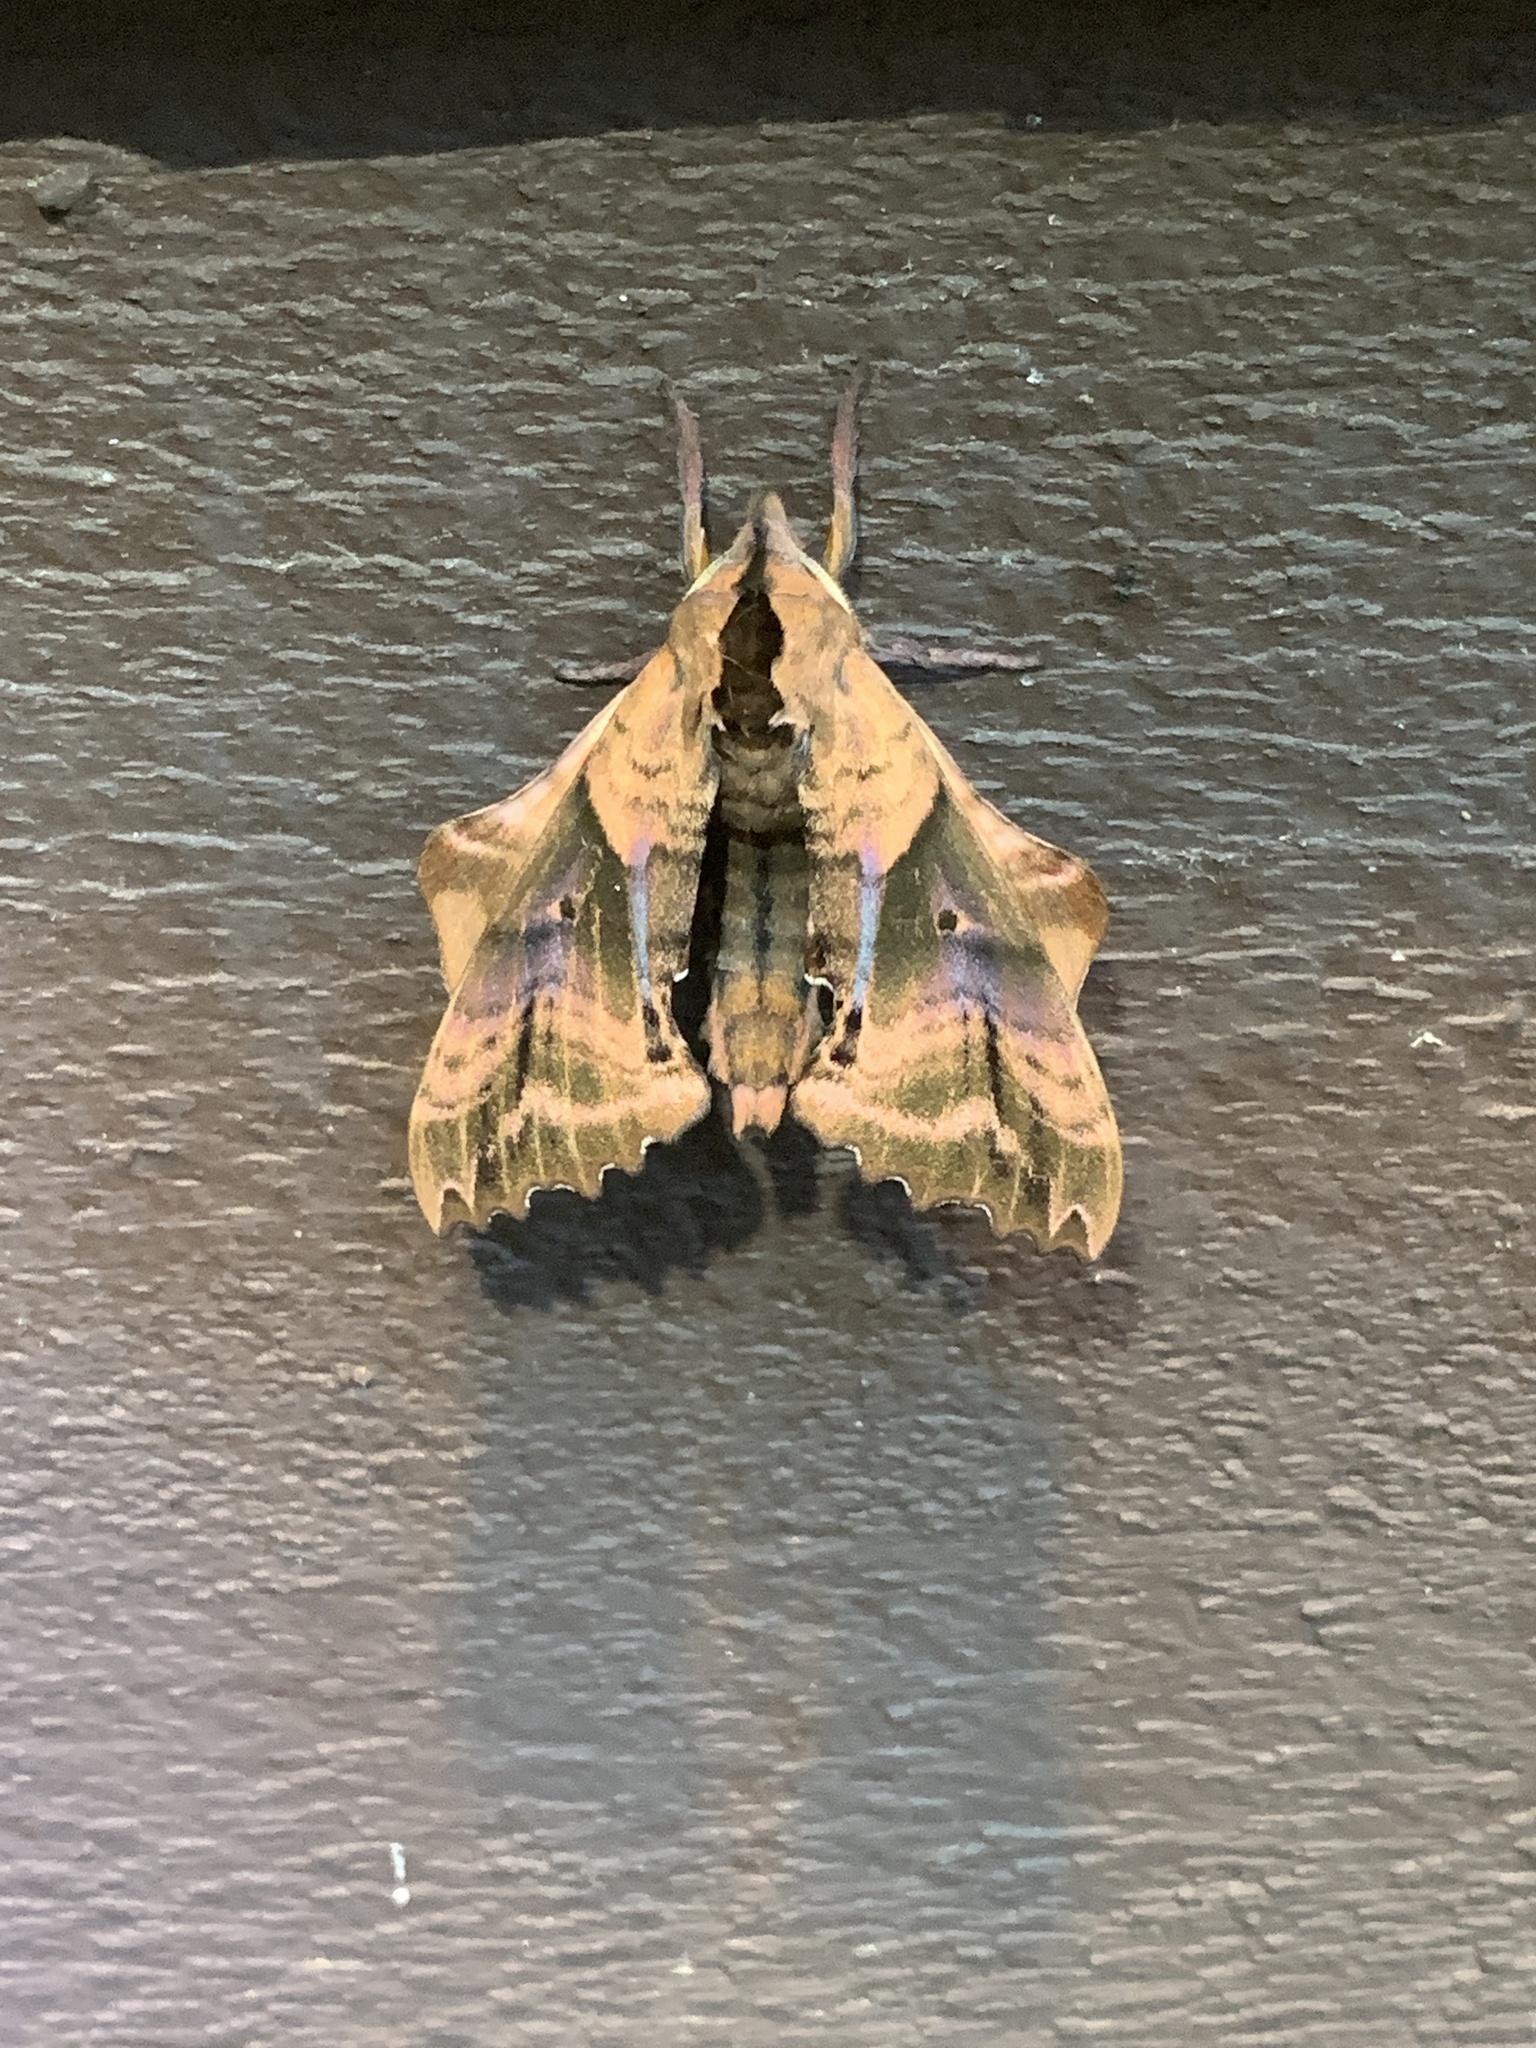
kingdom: Animalia
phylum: Arthropoda
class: Insecta
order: Lepidoptera
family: Sphingidae
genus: Paonias
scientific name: Paonias excaecata
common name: Blind-eyed sphinx
